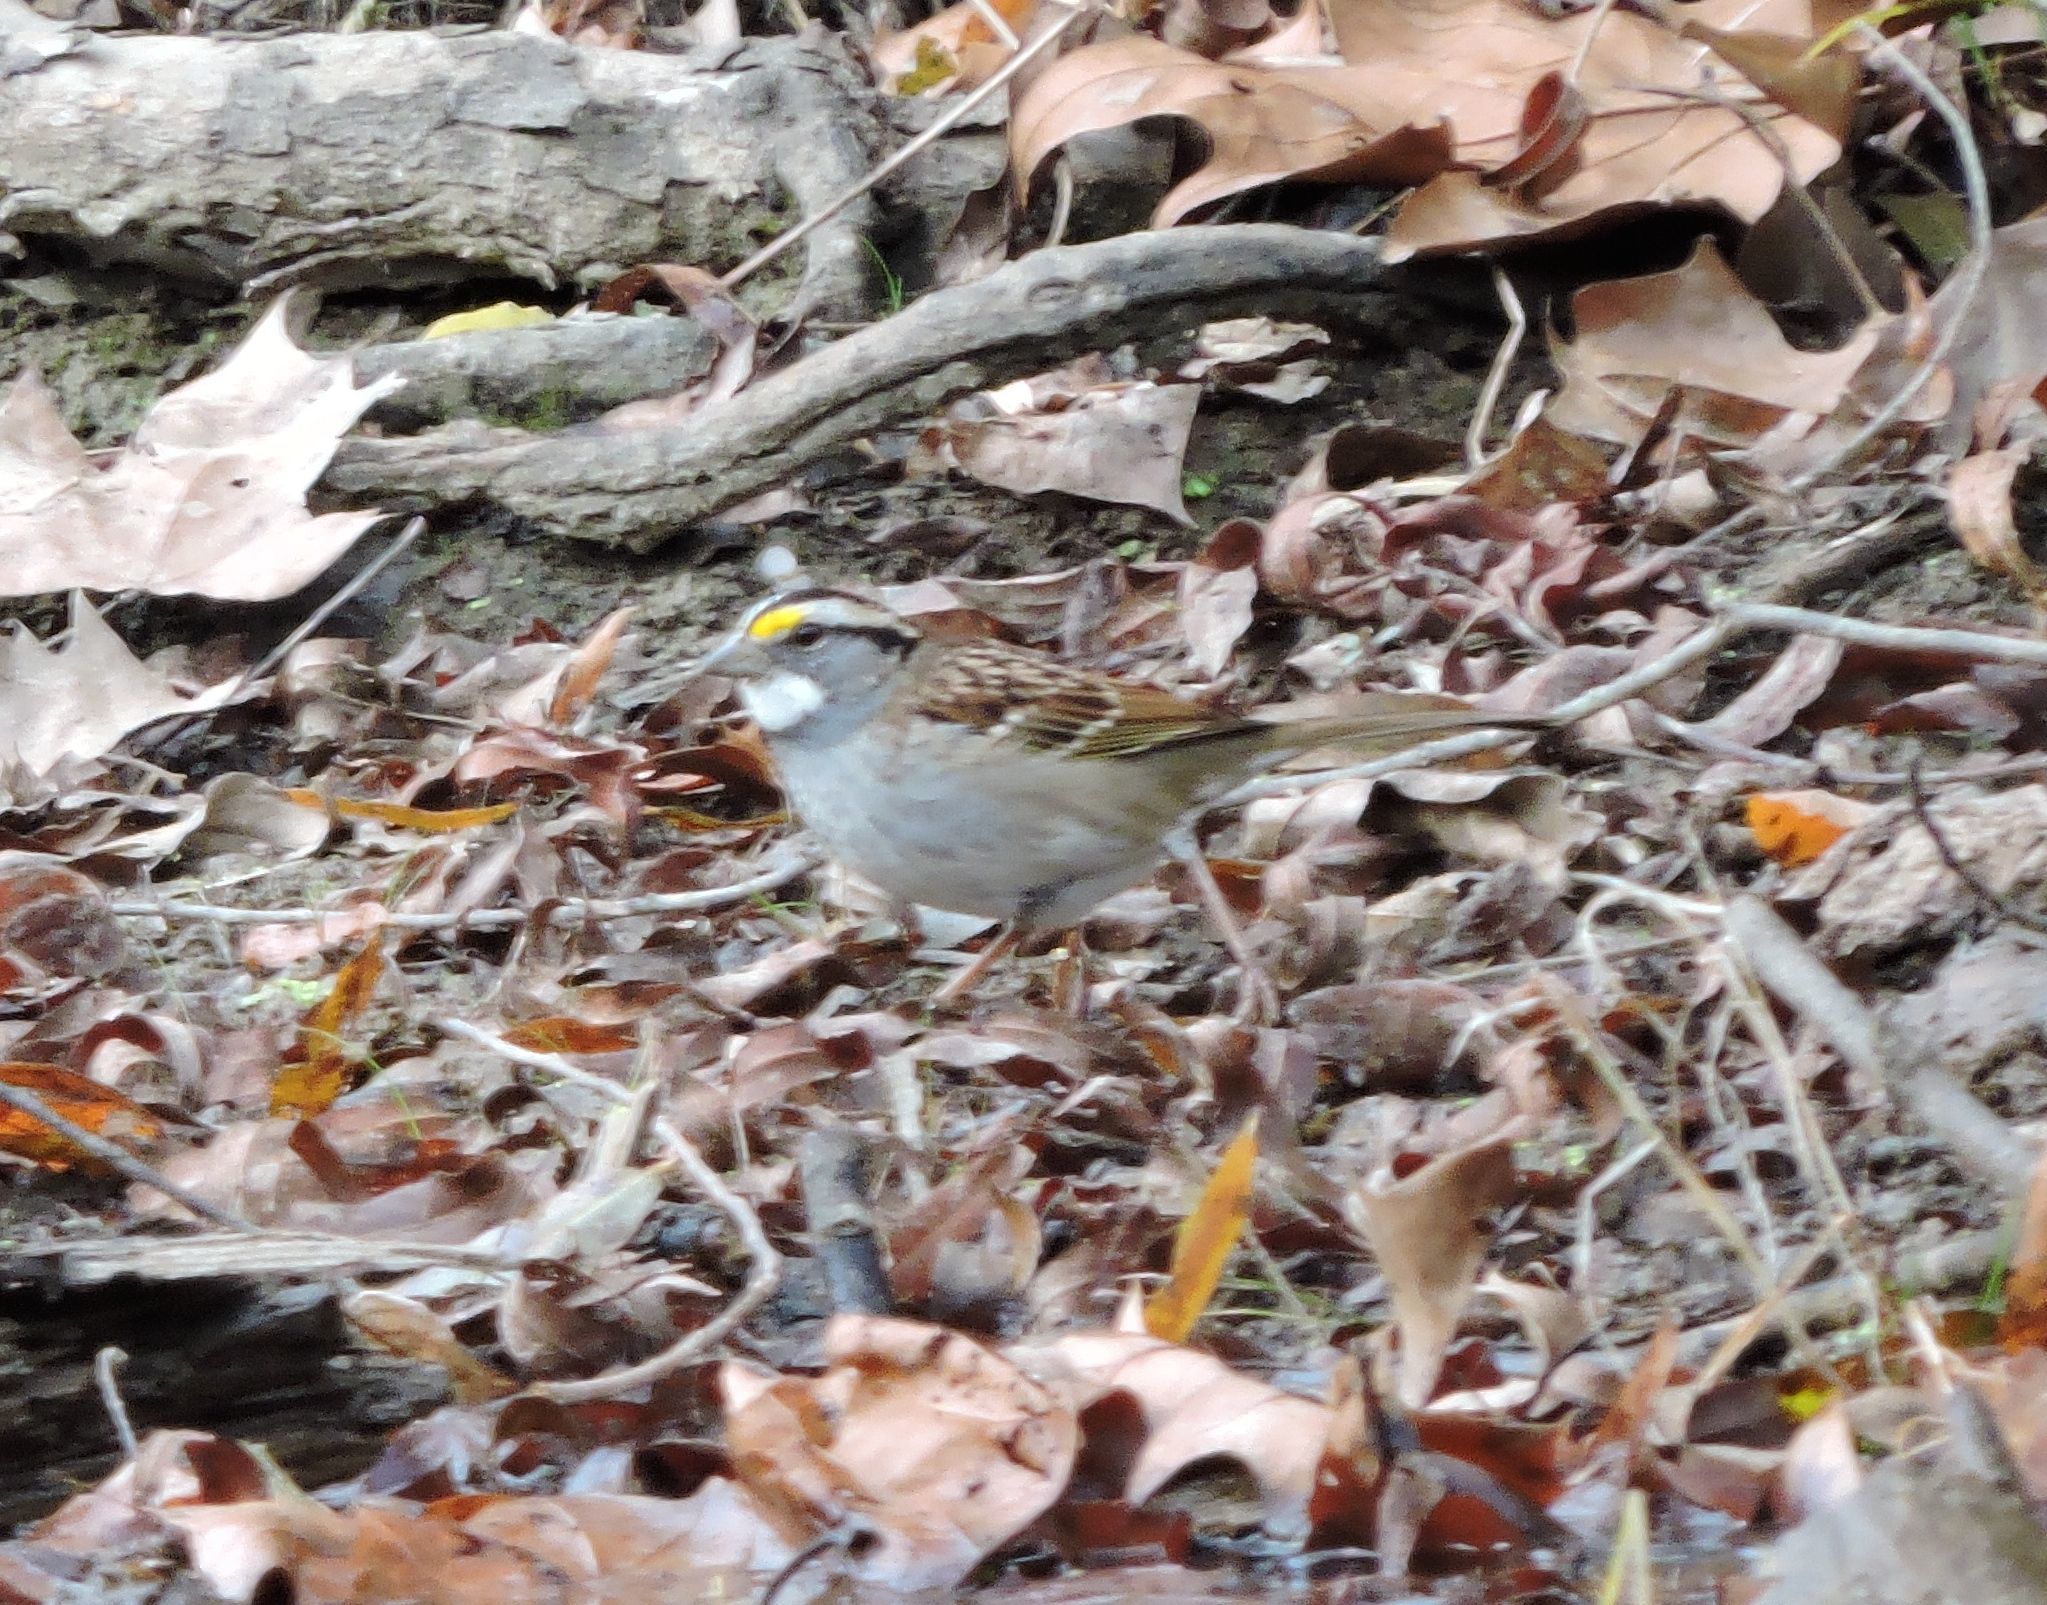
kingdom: Animalia
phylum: Chordata
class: Aves
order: Passeriformes
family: Passerellidae
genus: Zonotrichia
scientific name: Zonotrichia albicollis
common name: White-throated sparrow
